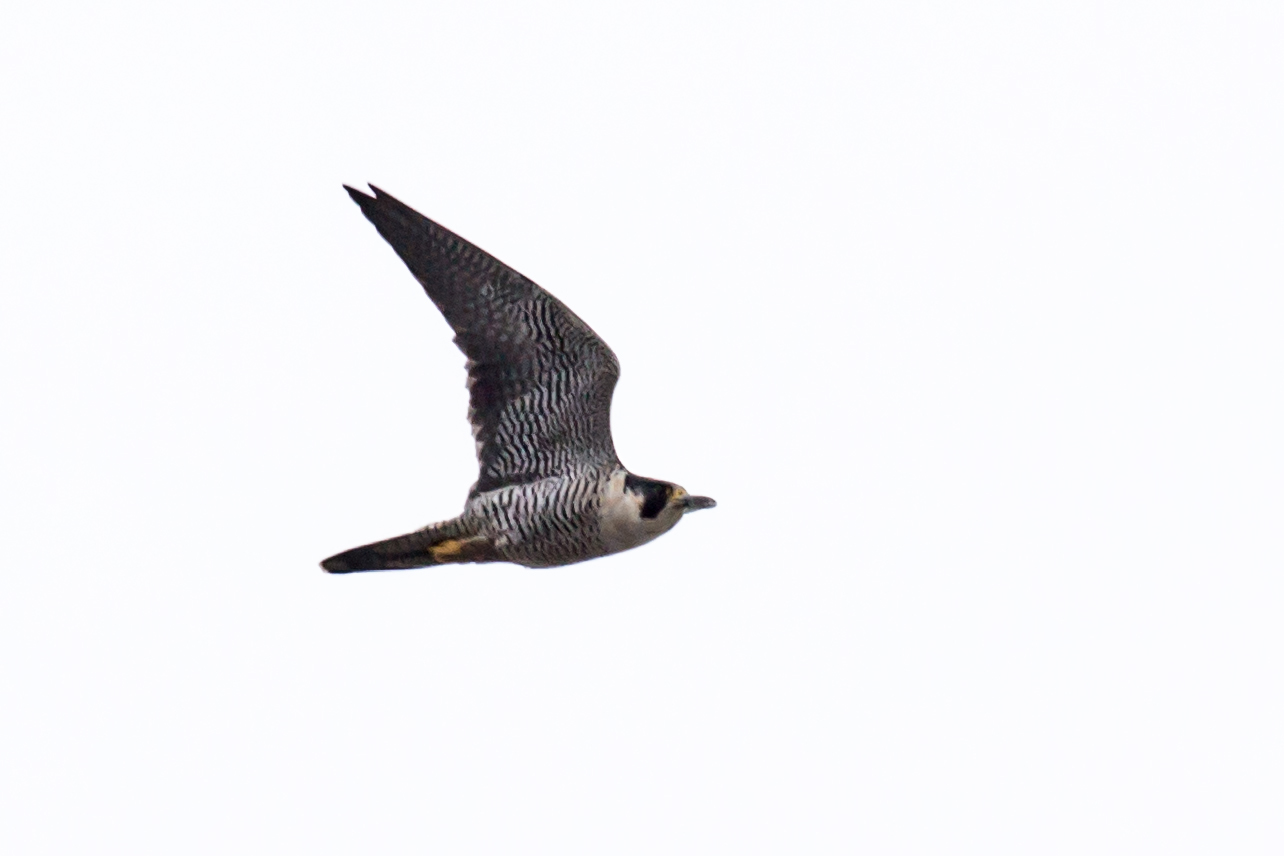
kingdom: Animalia
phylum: Chordata
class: Aves
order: Falconiformes
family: Falconidae
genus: Falco
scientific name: Falco peregrinus
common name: Peregrine falcon
